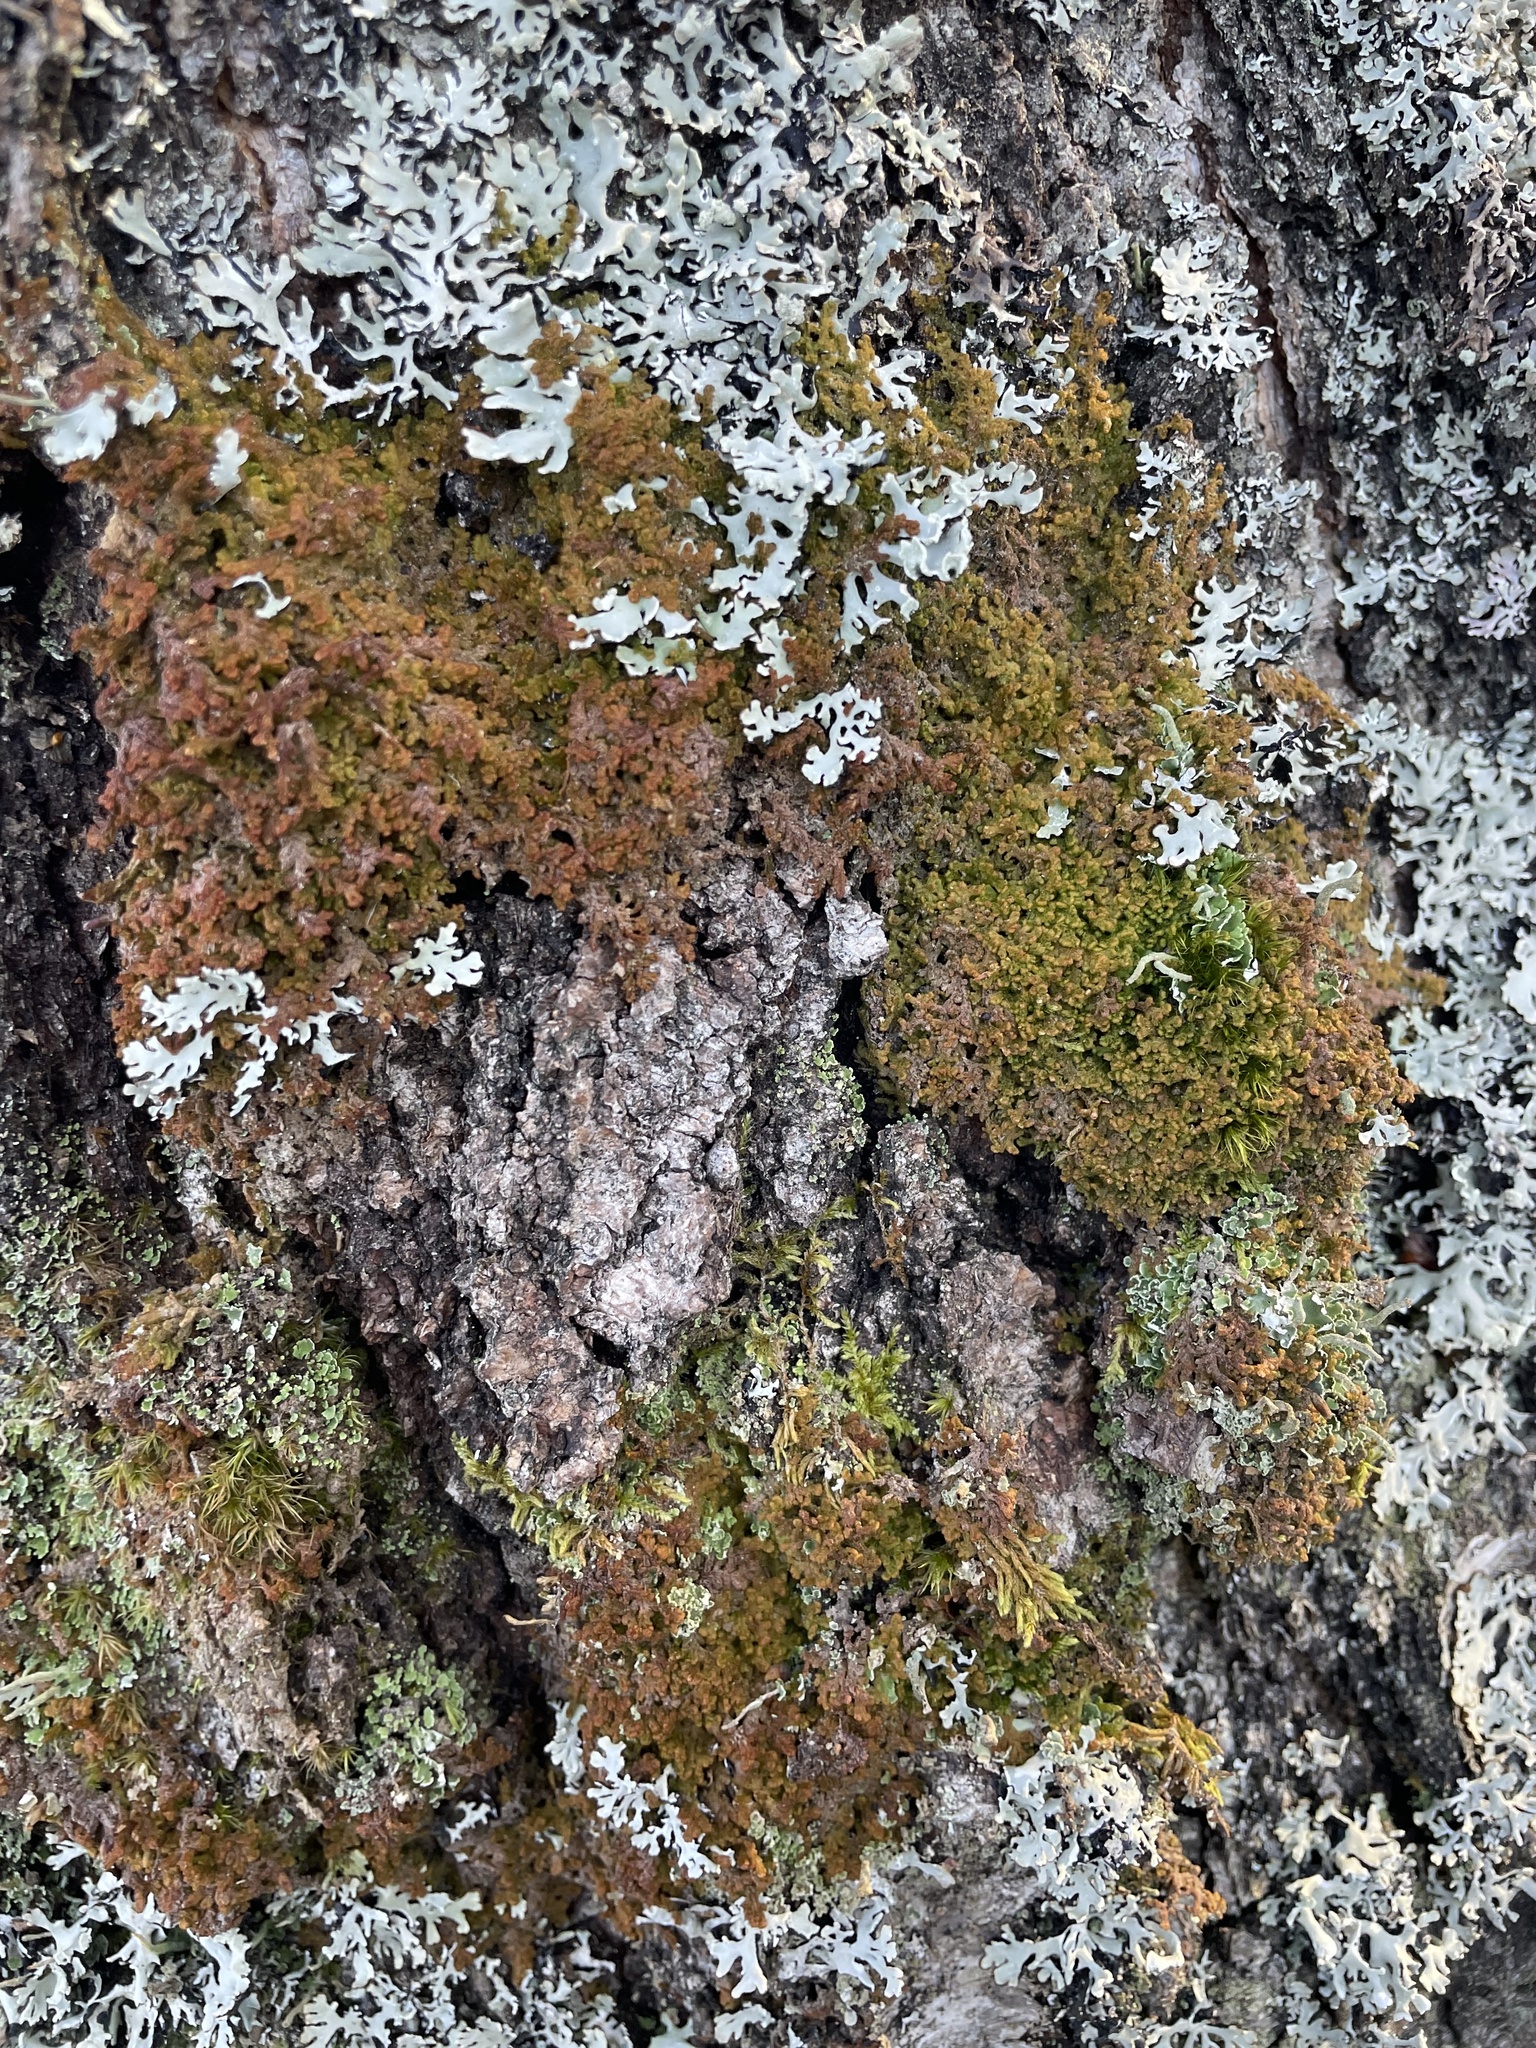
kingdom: Plantae
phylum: Marchantiophyta
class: Jungermanniopsida
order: Ptilidiales
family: Ptilidiaceae
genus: Ptilidium
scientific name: Ptilidium pulcherrimum
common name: Tree fringewort
